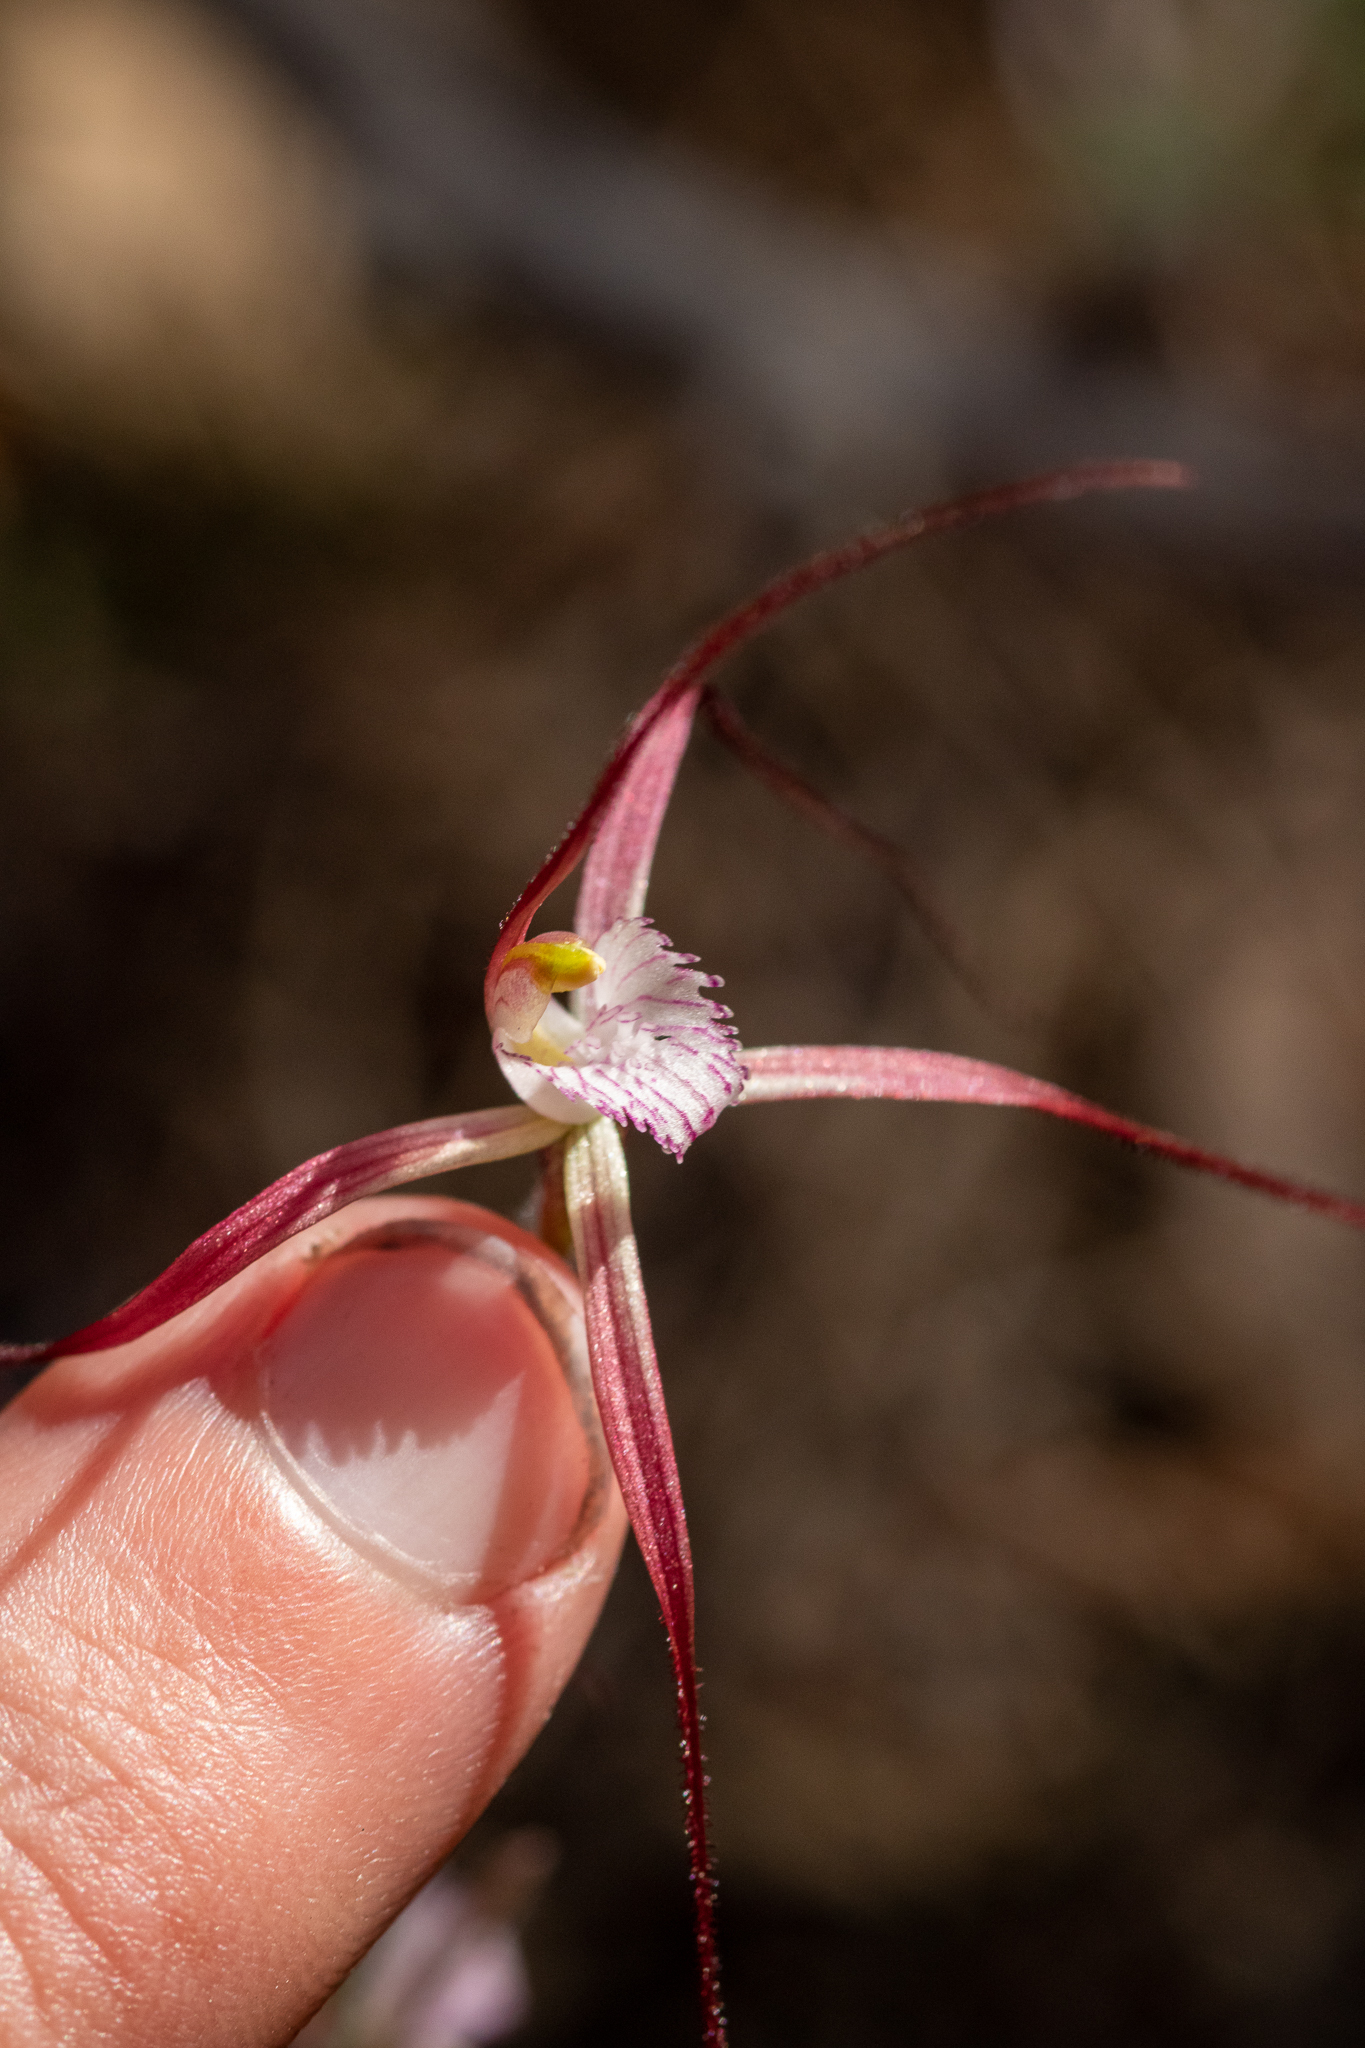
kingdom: Plantae
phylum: Tracheophyta
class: Liliopsida
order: Asparagales
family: Orchidaceae
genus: Caladenia
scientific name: Caladenia footeana
